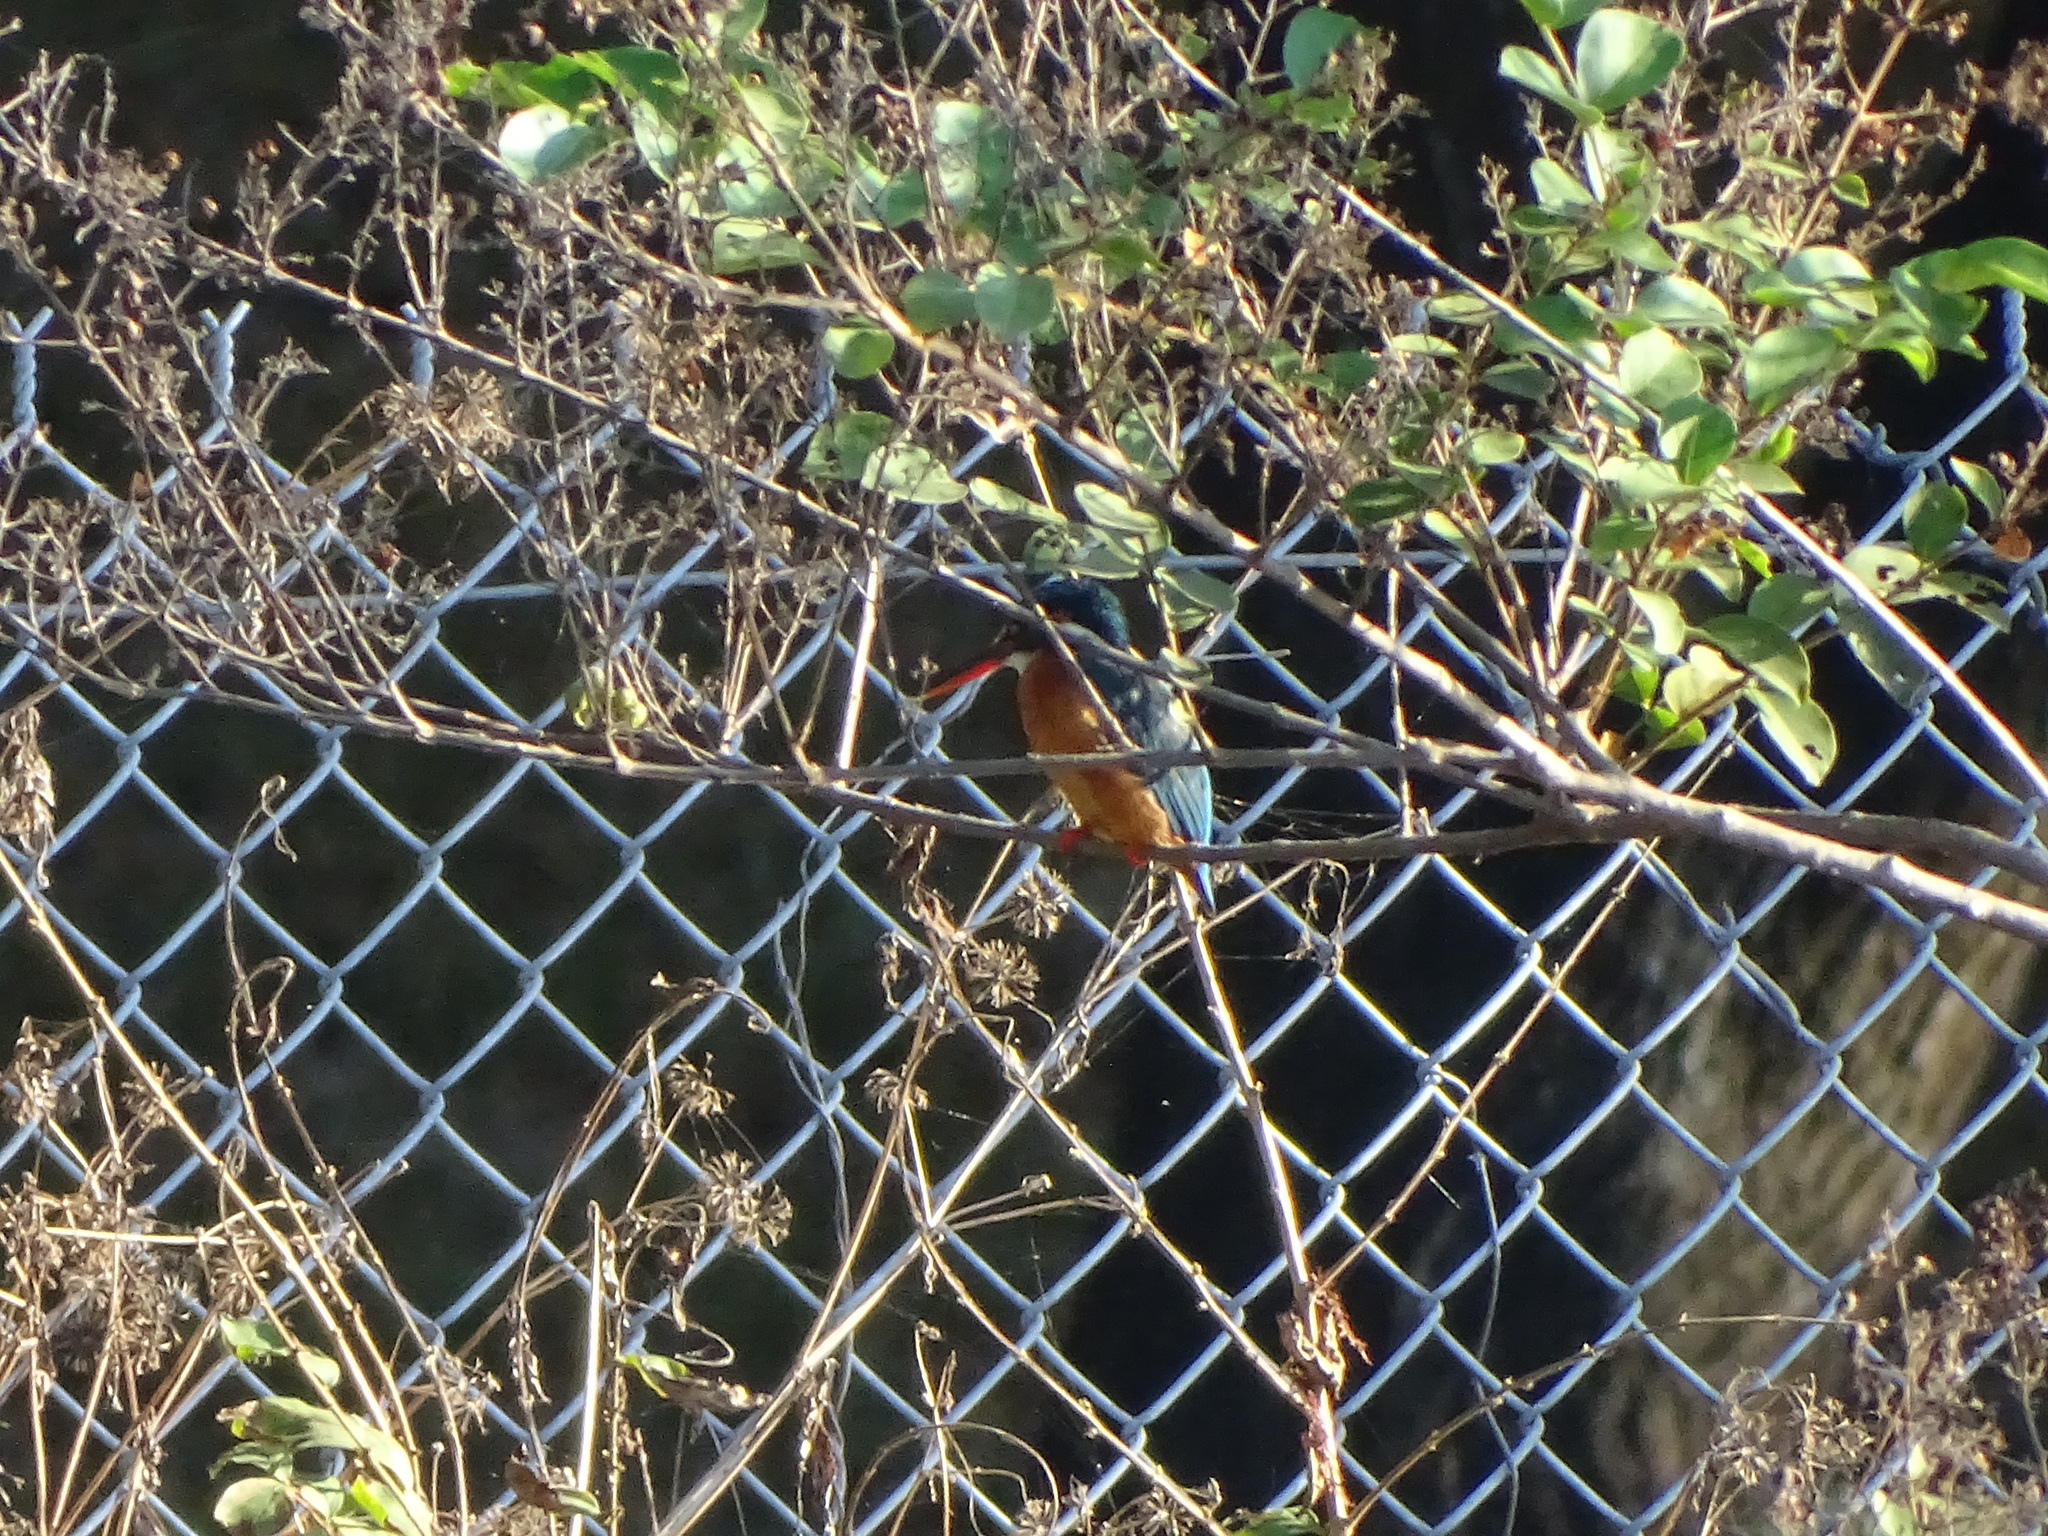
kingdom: Animalia
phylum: Chordata
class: Aves
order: Coraciiformes
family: Alcedinidae
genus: Alcedo
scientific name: Alcedo atthis
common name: Common kingfisher
